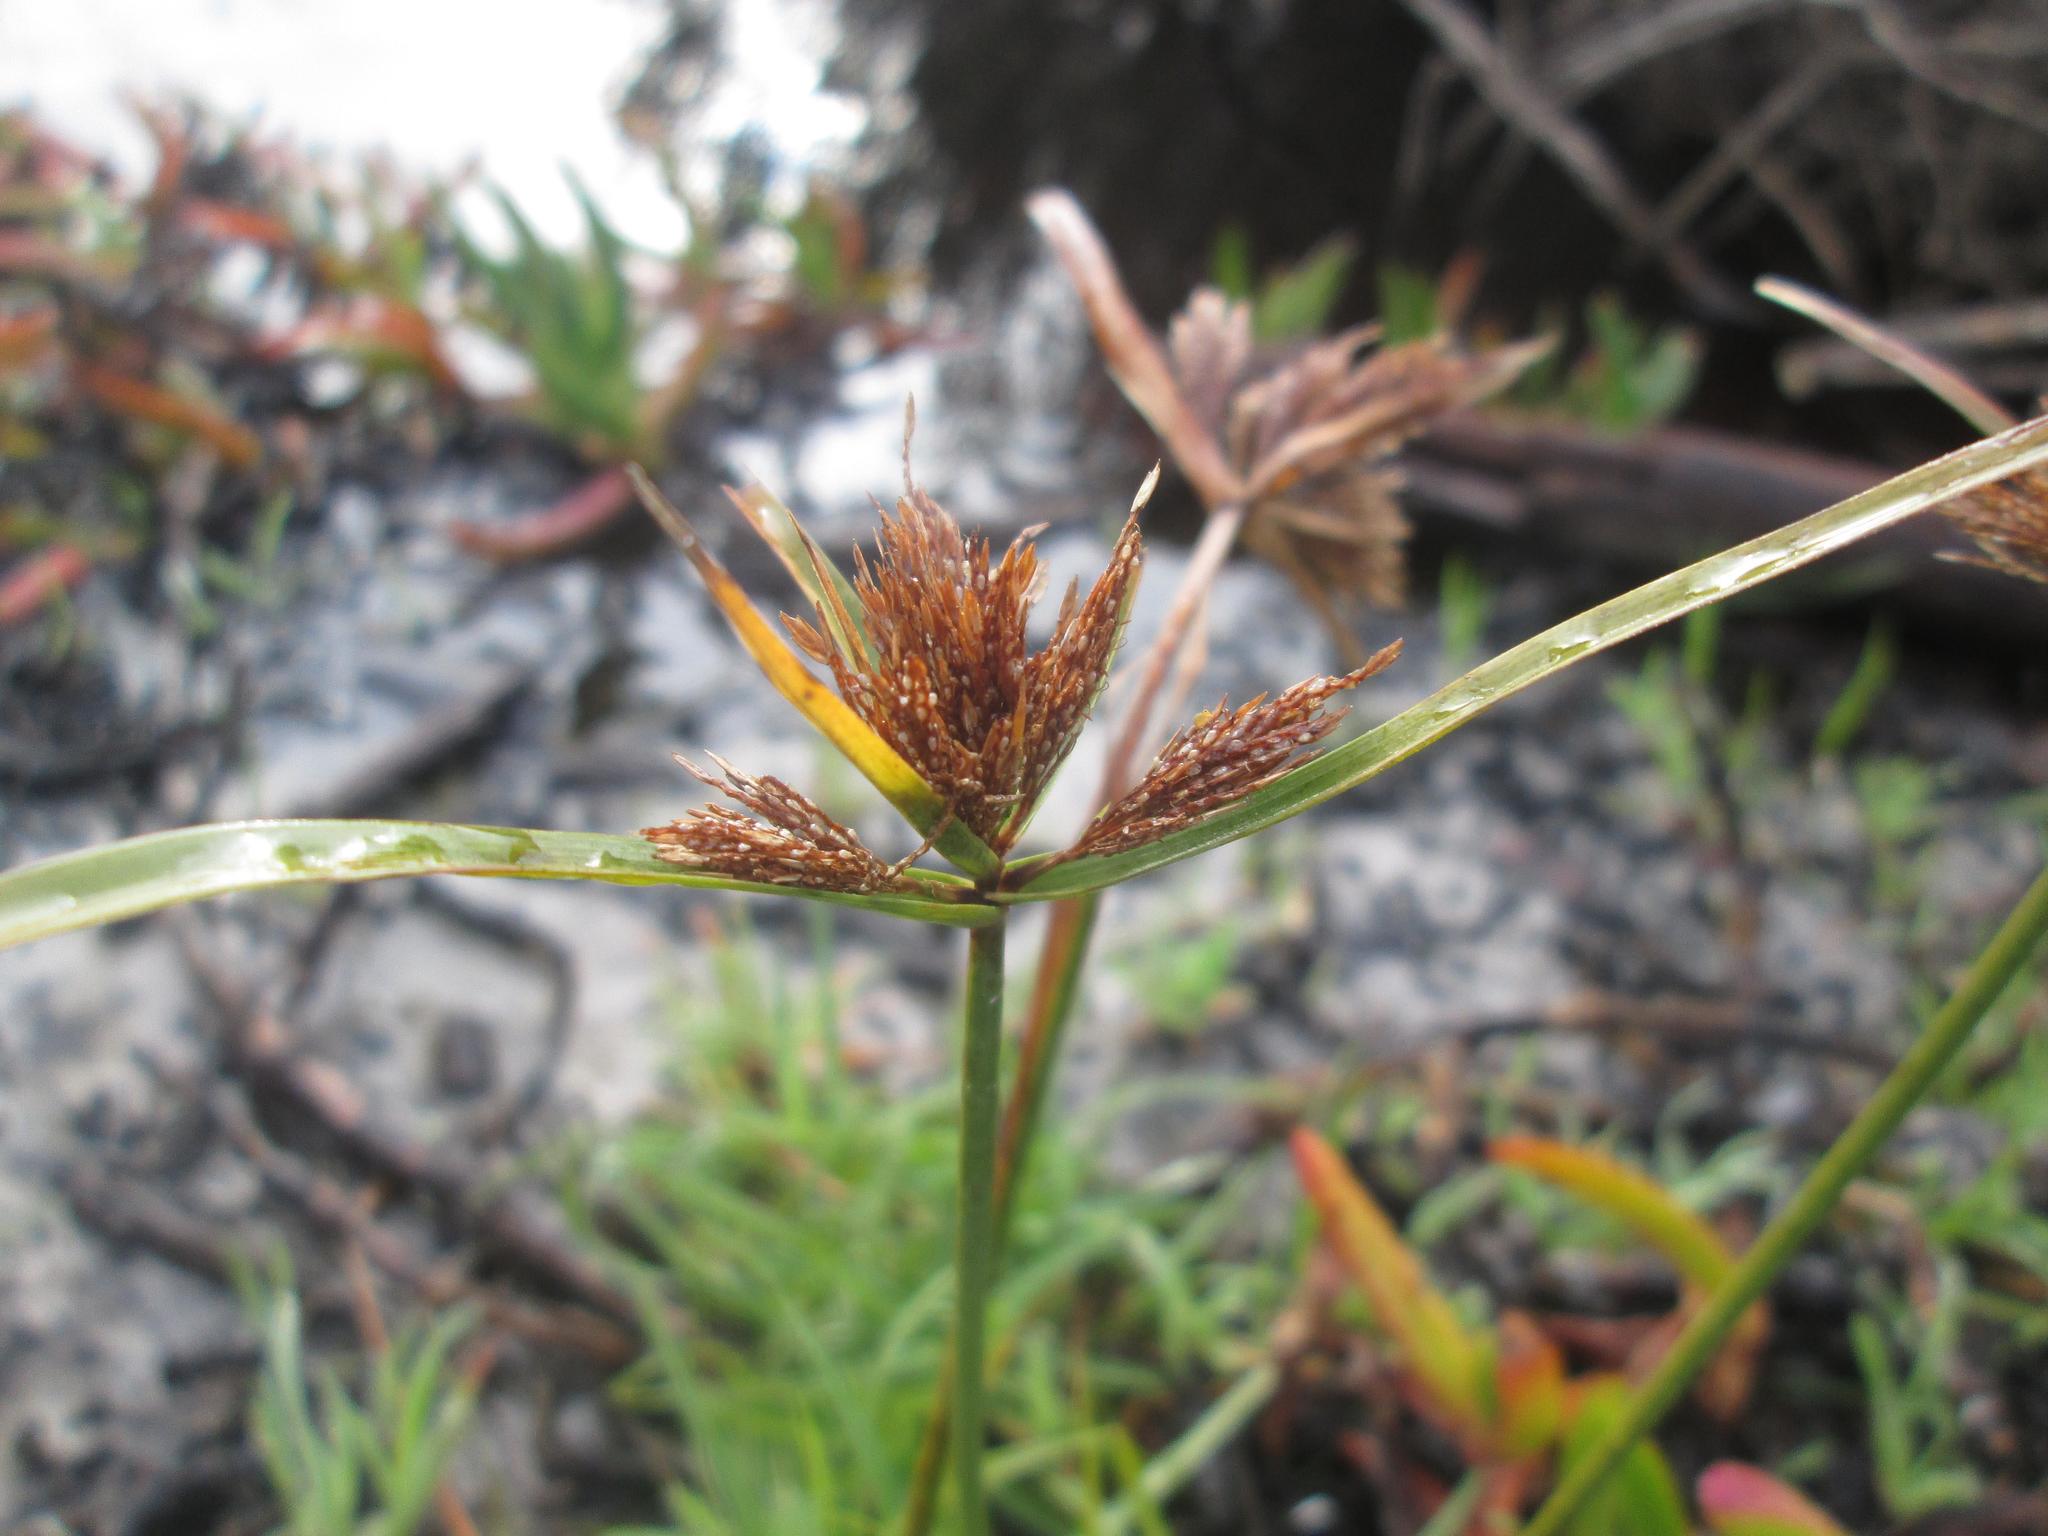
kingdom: Plantae
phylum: Tracheophyta
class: Liliopsida
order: Poales
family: Cyperaceae
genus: Cyperus
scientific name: Cyperus polystachyos
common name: Bunchy flat sedge
